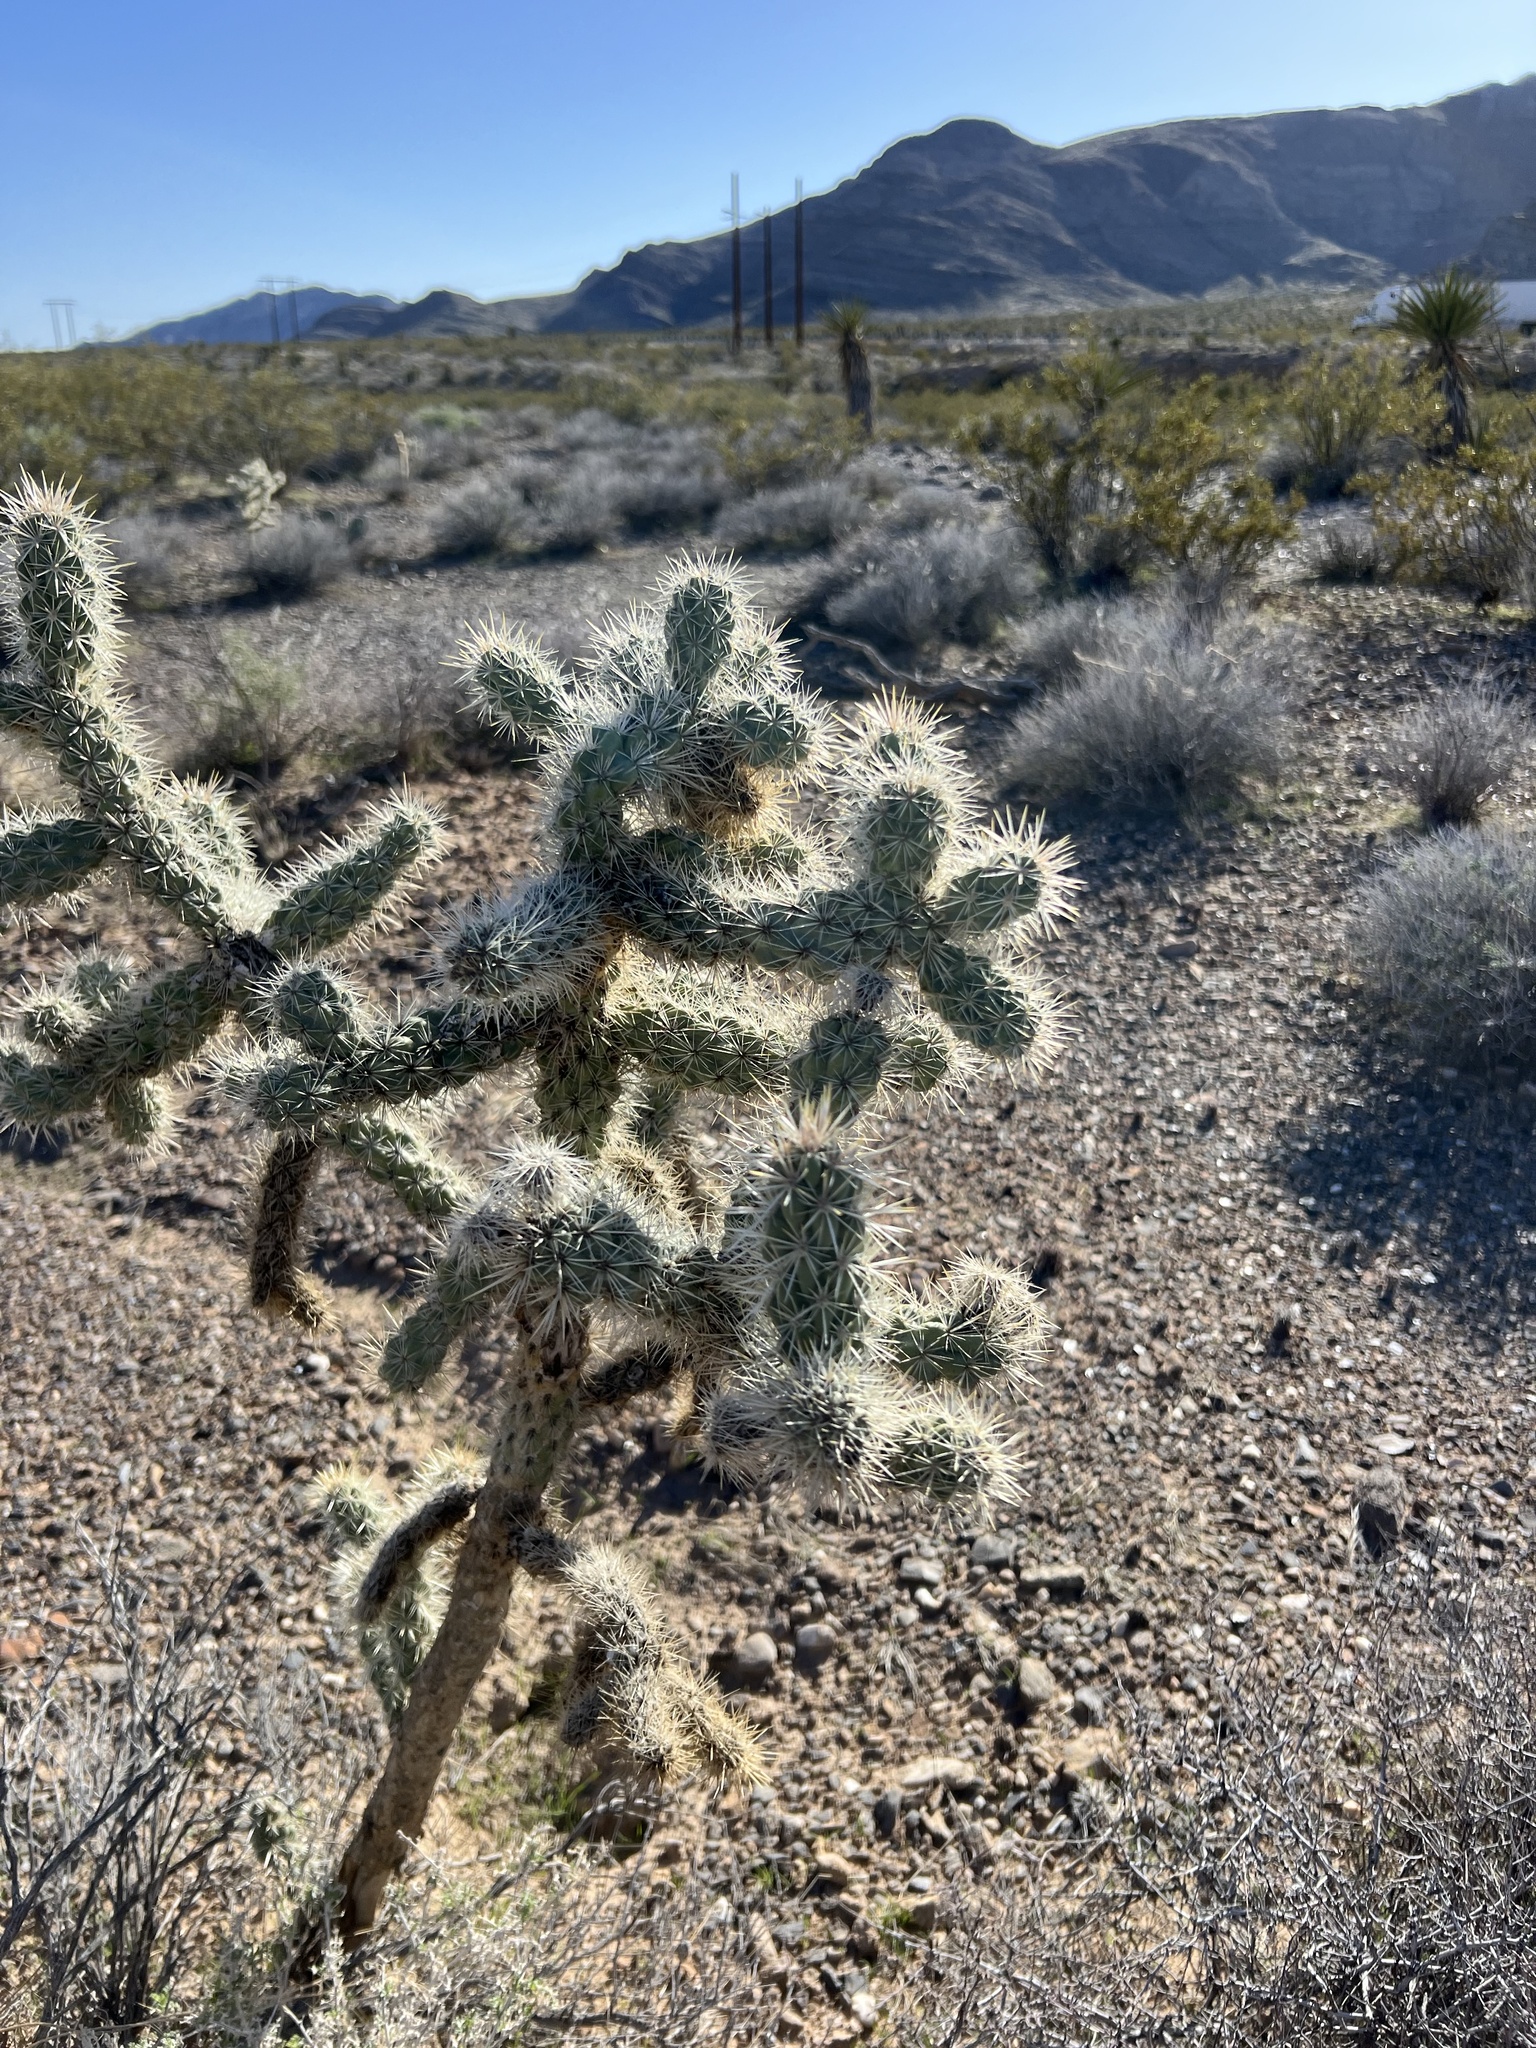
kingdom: Plantae
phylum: Tracheophyta
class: Magnoliopsida
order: Caryophyllales
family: Cactaceae
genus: Cylindropuntia
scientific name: Cylindropuntia echinocarpa
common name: Ground cholla
